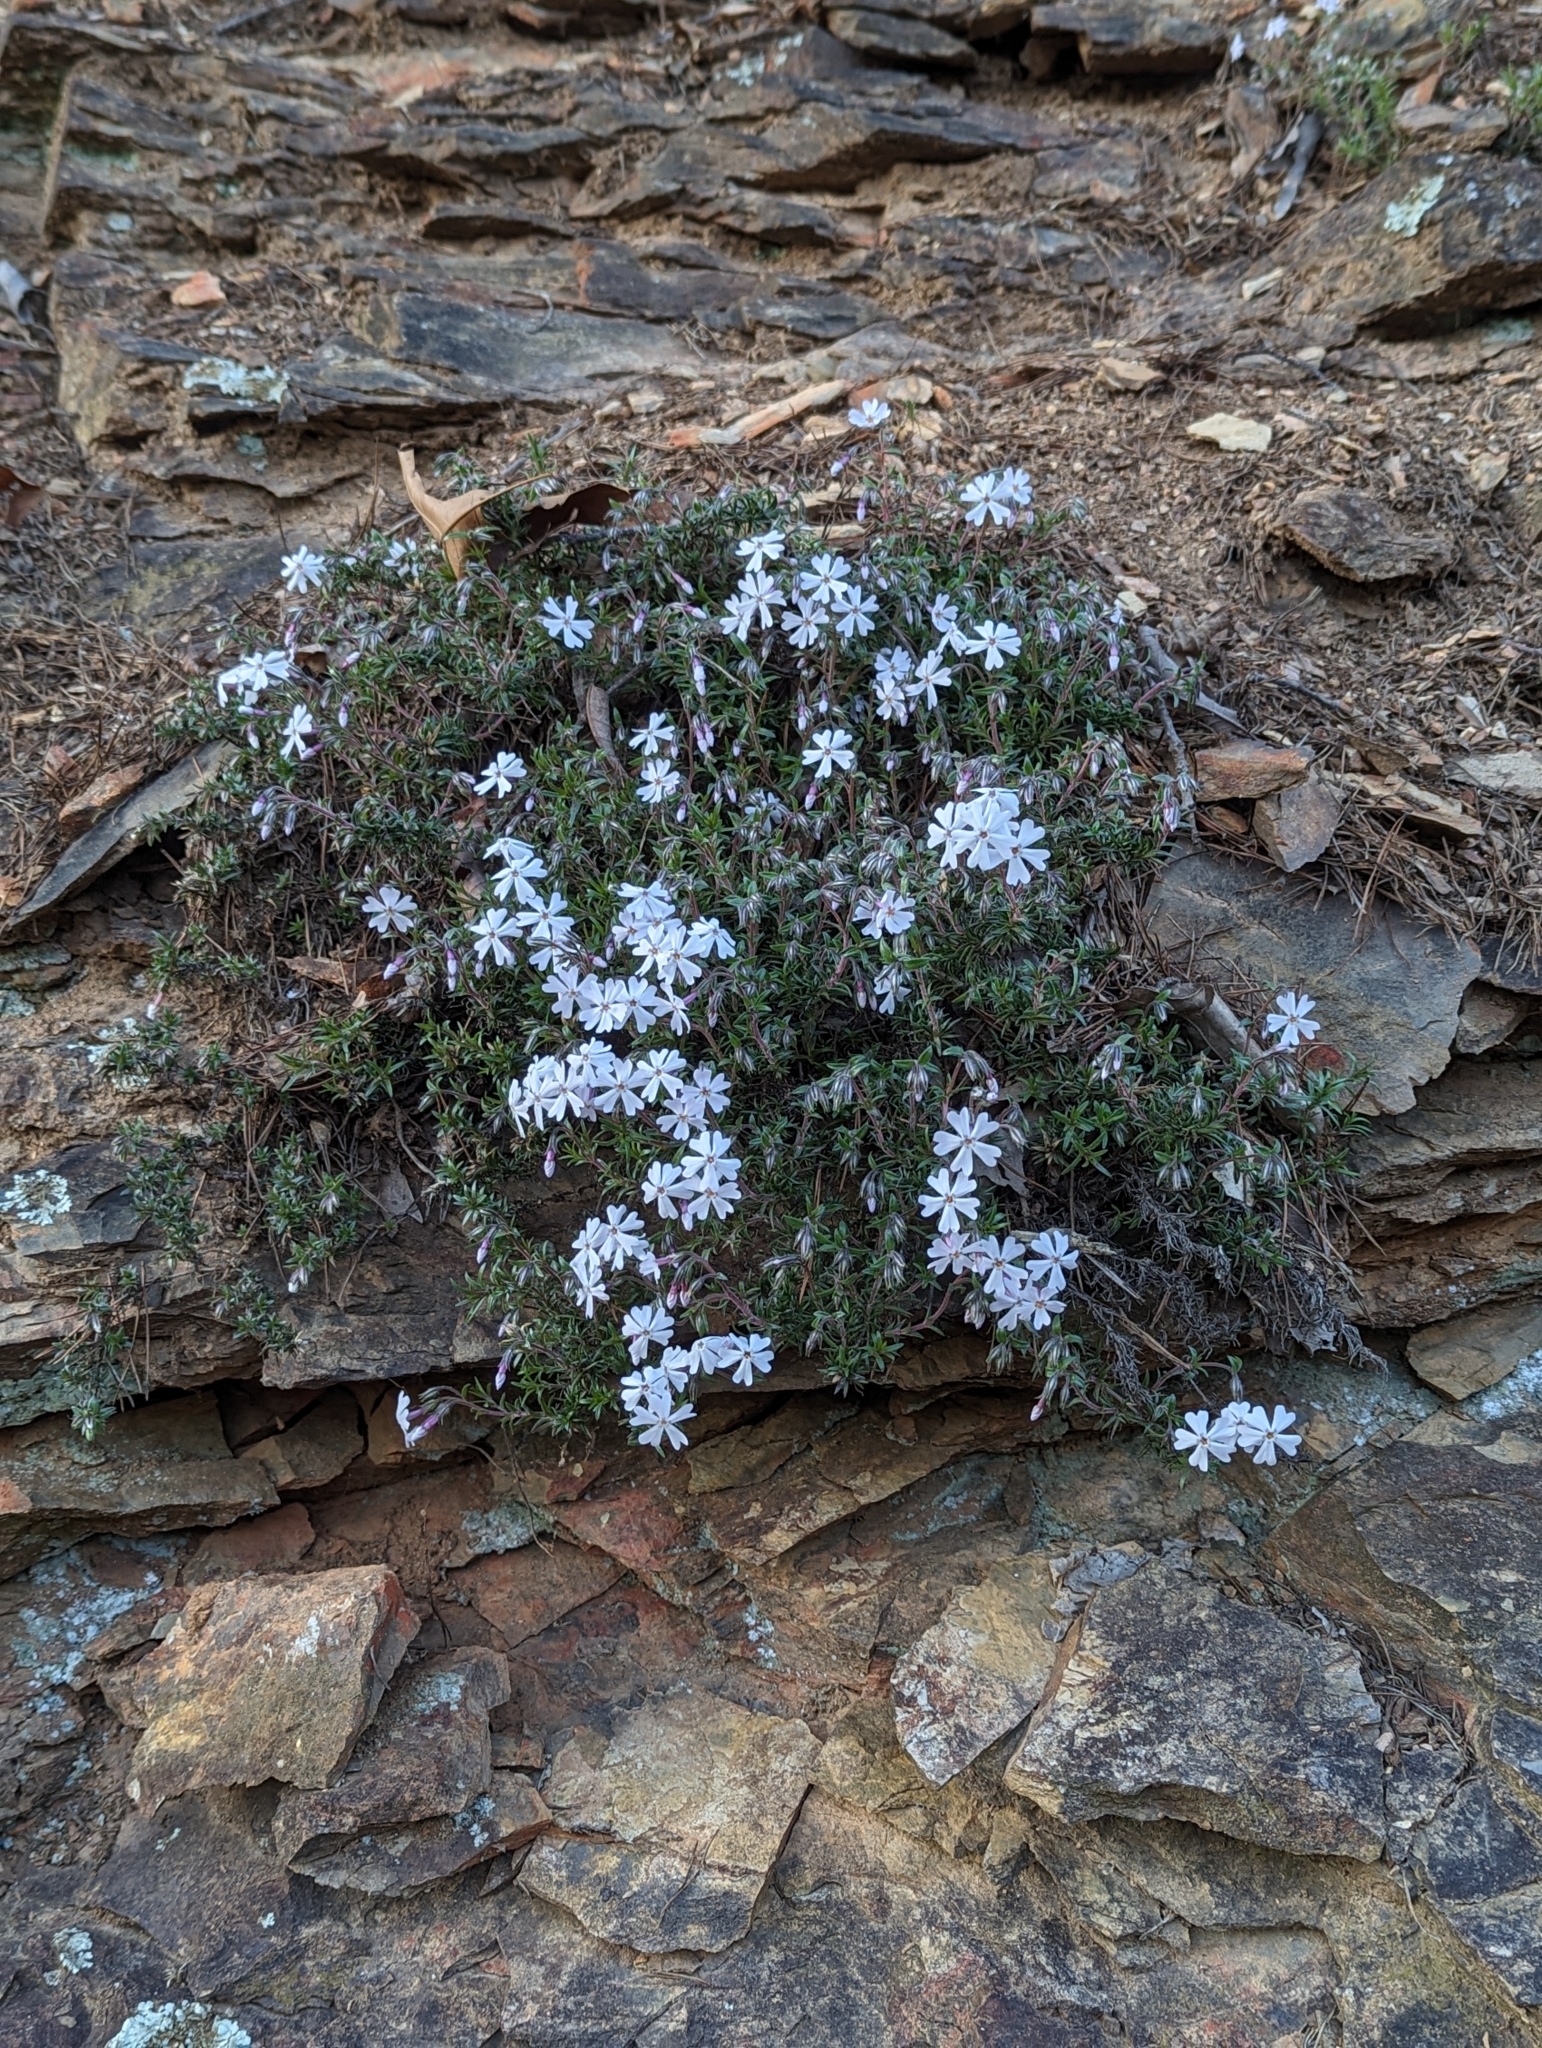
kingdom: Plantae
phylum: Tracheophyta
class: Magnoliopsida
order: Ericales
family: Polemoniaceae
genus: Phlox
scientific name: Phlox subulata
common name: Moss phlox
